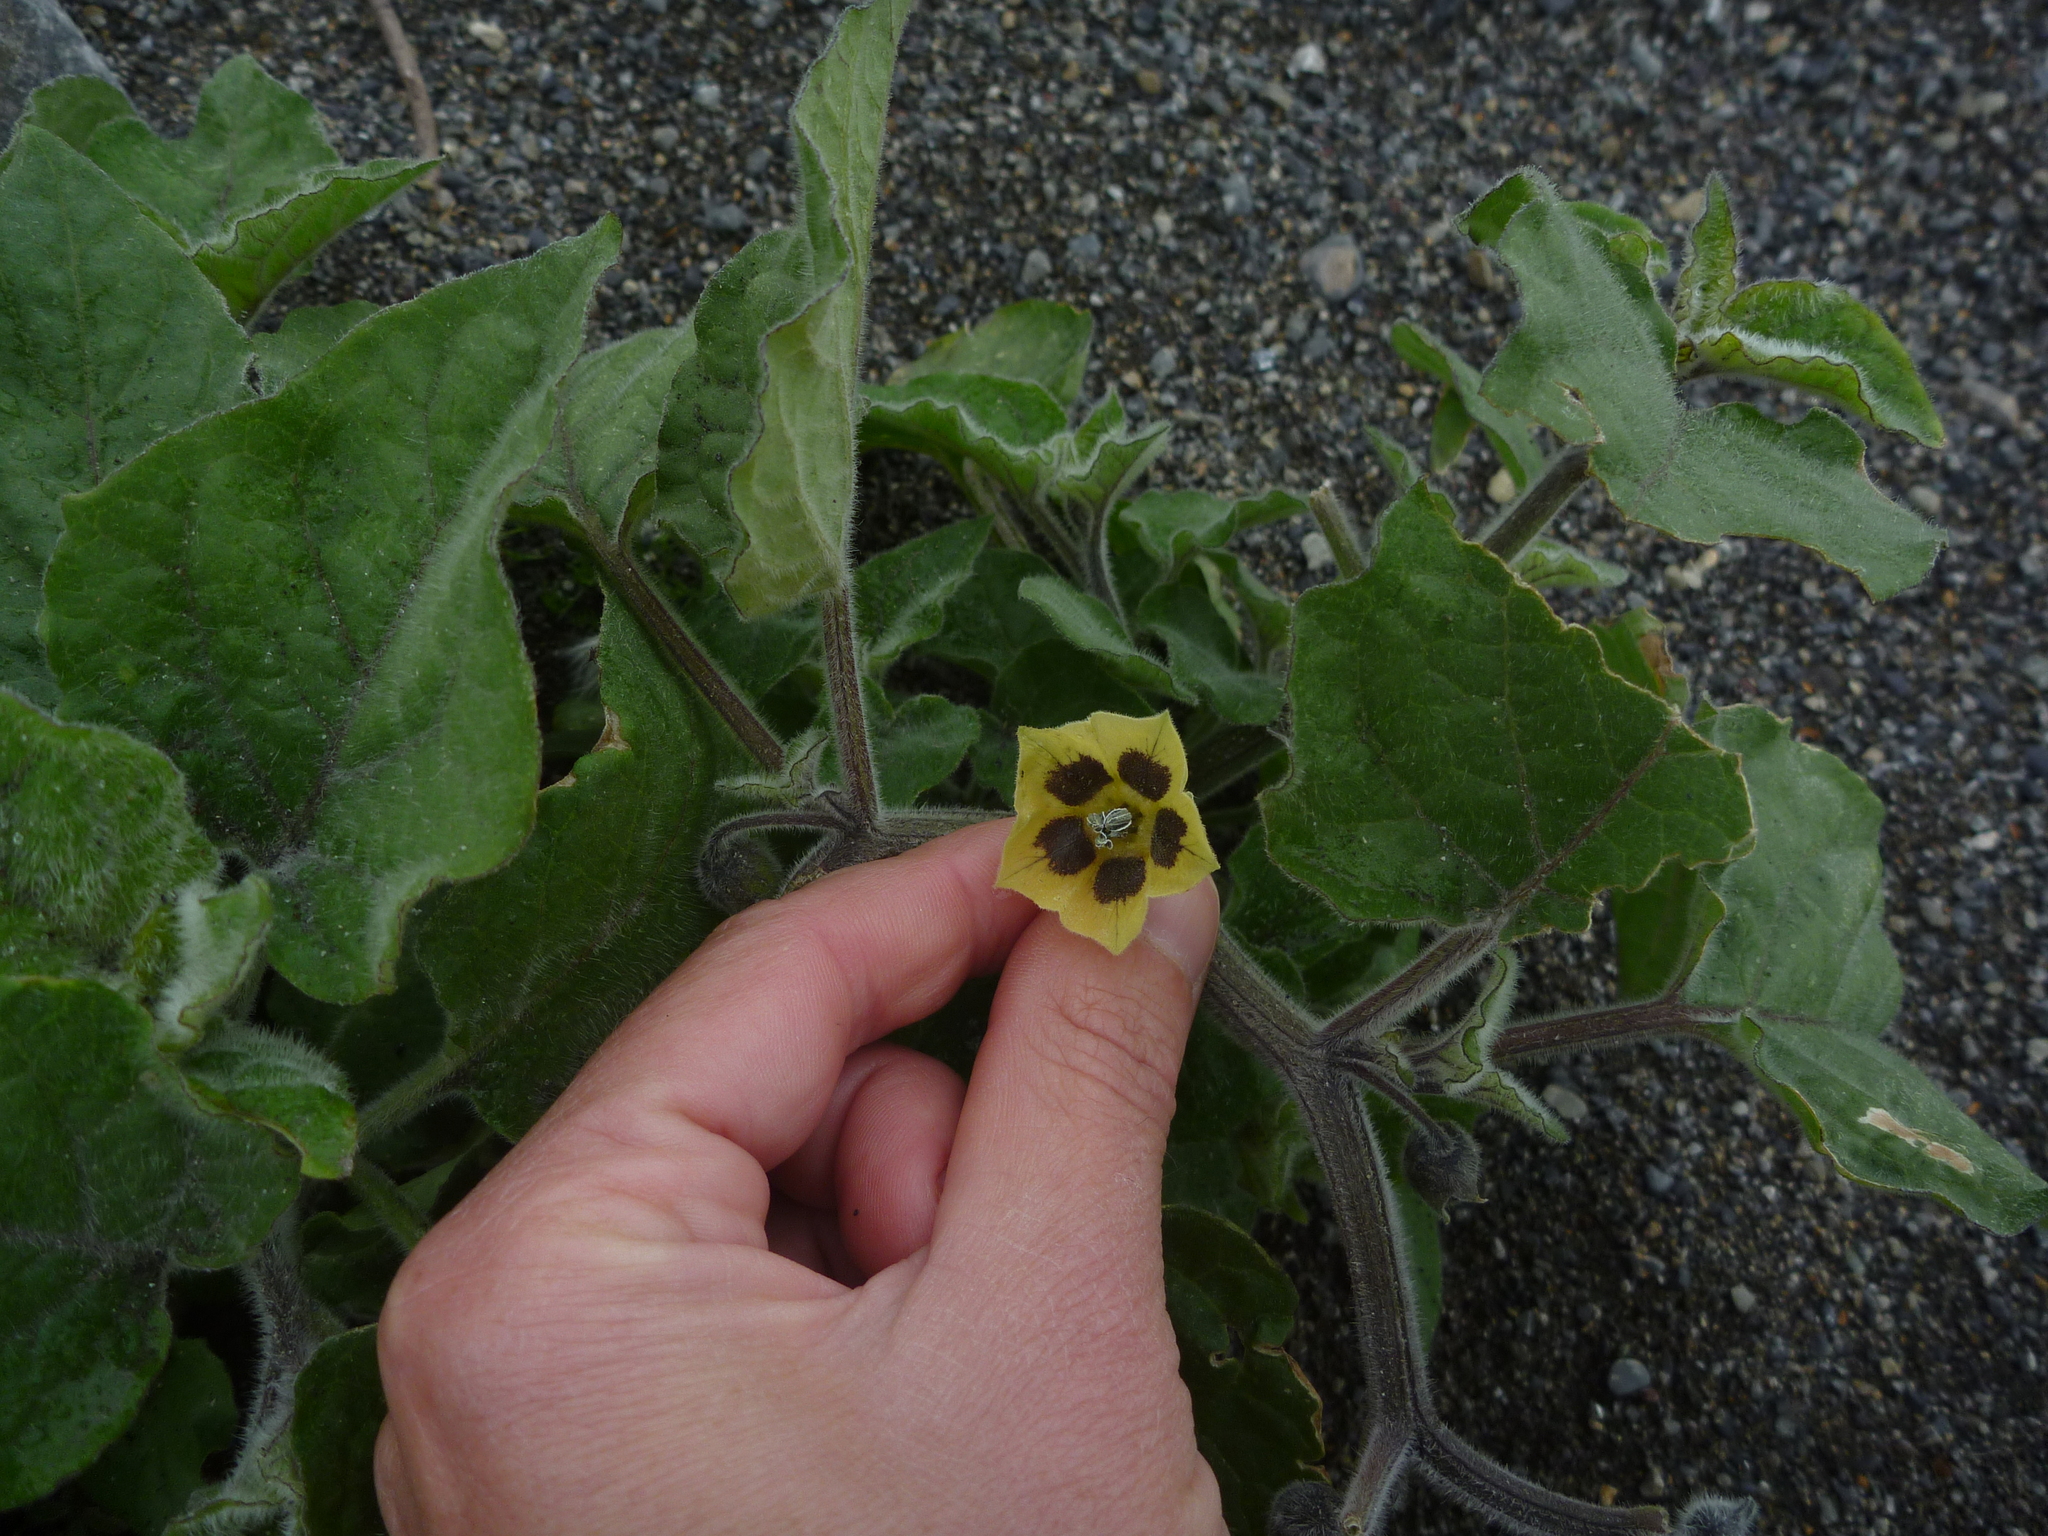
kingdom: Plantae
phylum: Tracheophyta
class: Magnoliopsida
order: Solanales
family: Solanaceae
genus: Physalis
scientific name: Physalis peruviana
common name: Cape-gooseberry
